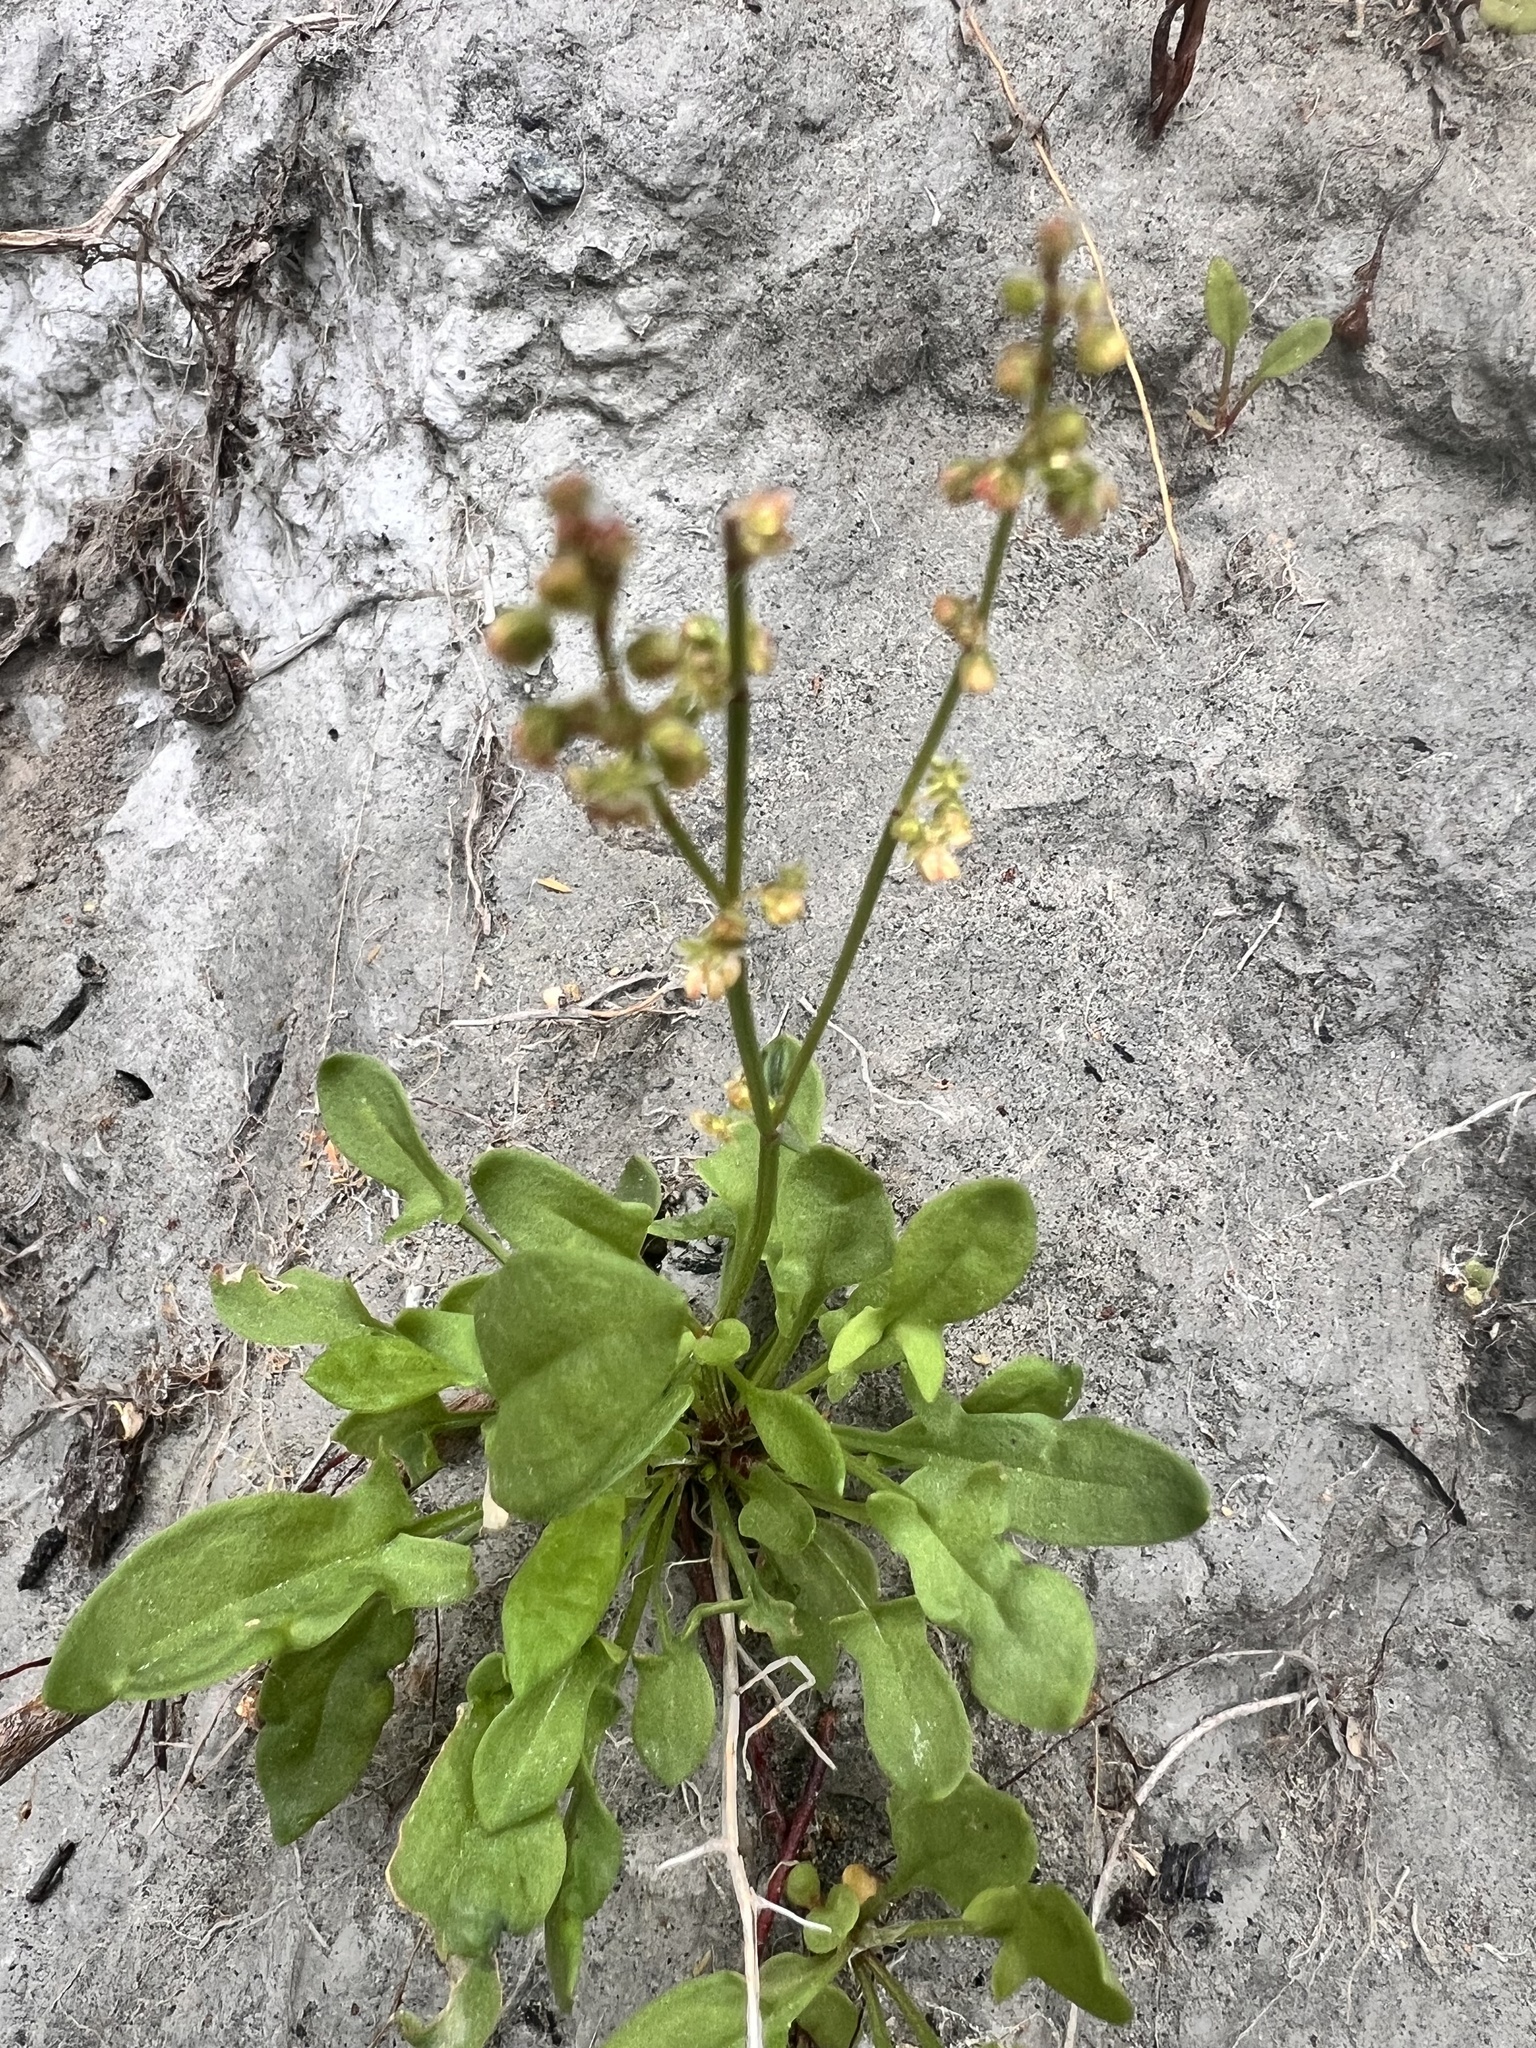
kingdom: Plantae
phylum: Tracheophyta
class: Magnoliopsida
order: Caryophyllales
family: Polygonaceae
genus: Rumex
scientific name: Rumex acetosella
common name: Common sheep sorrel
